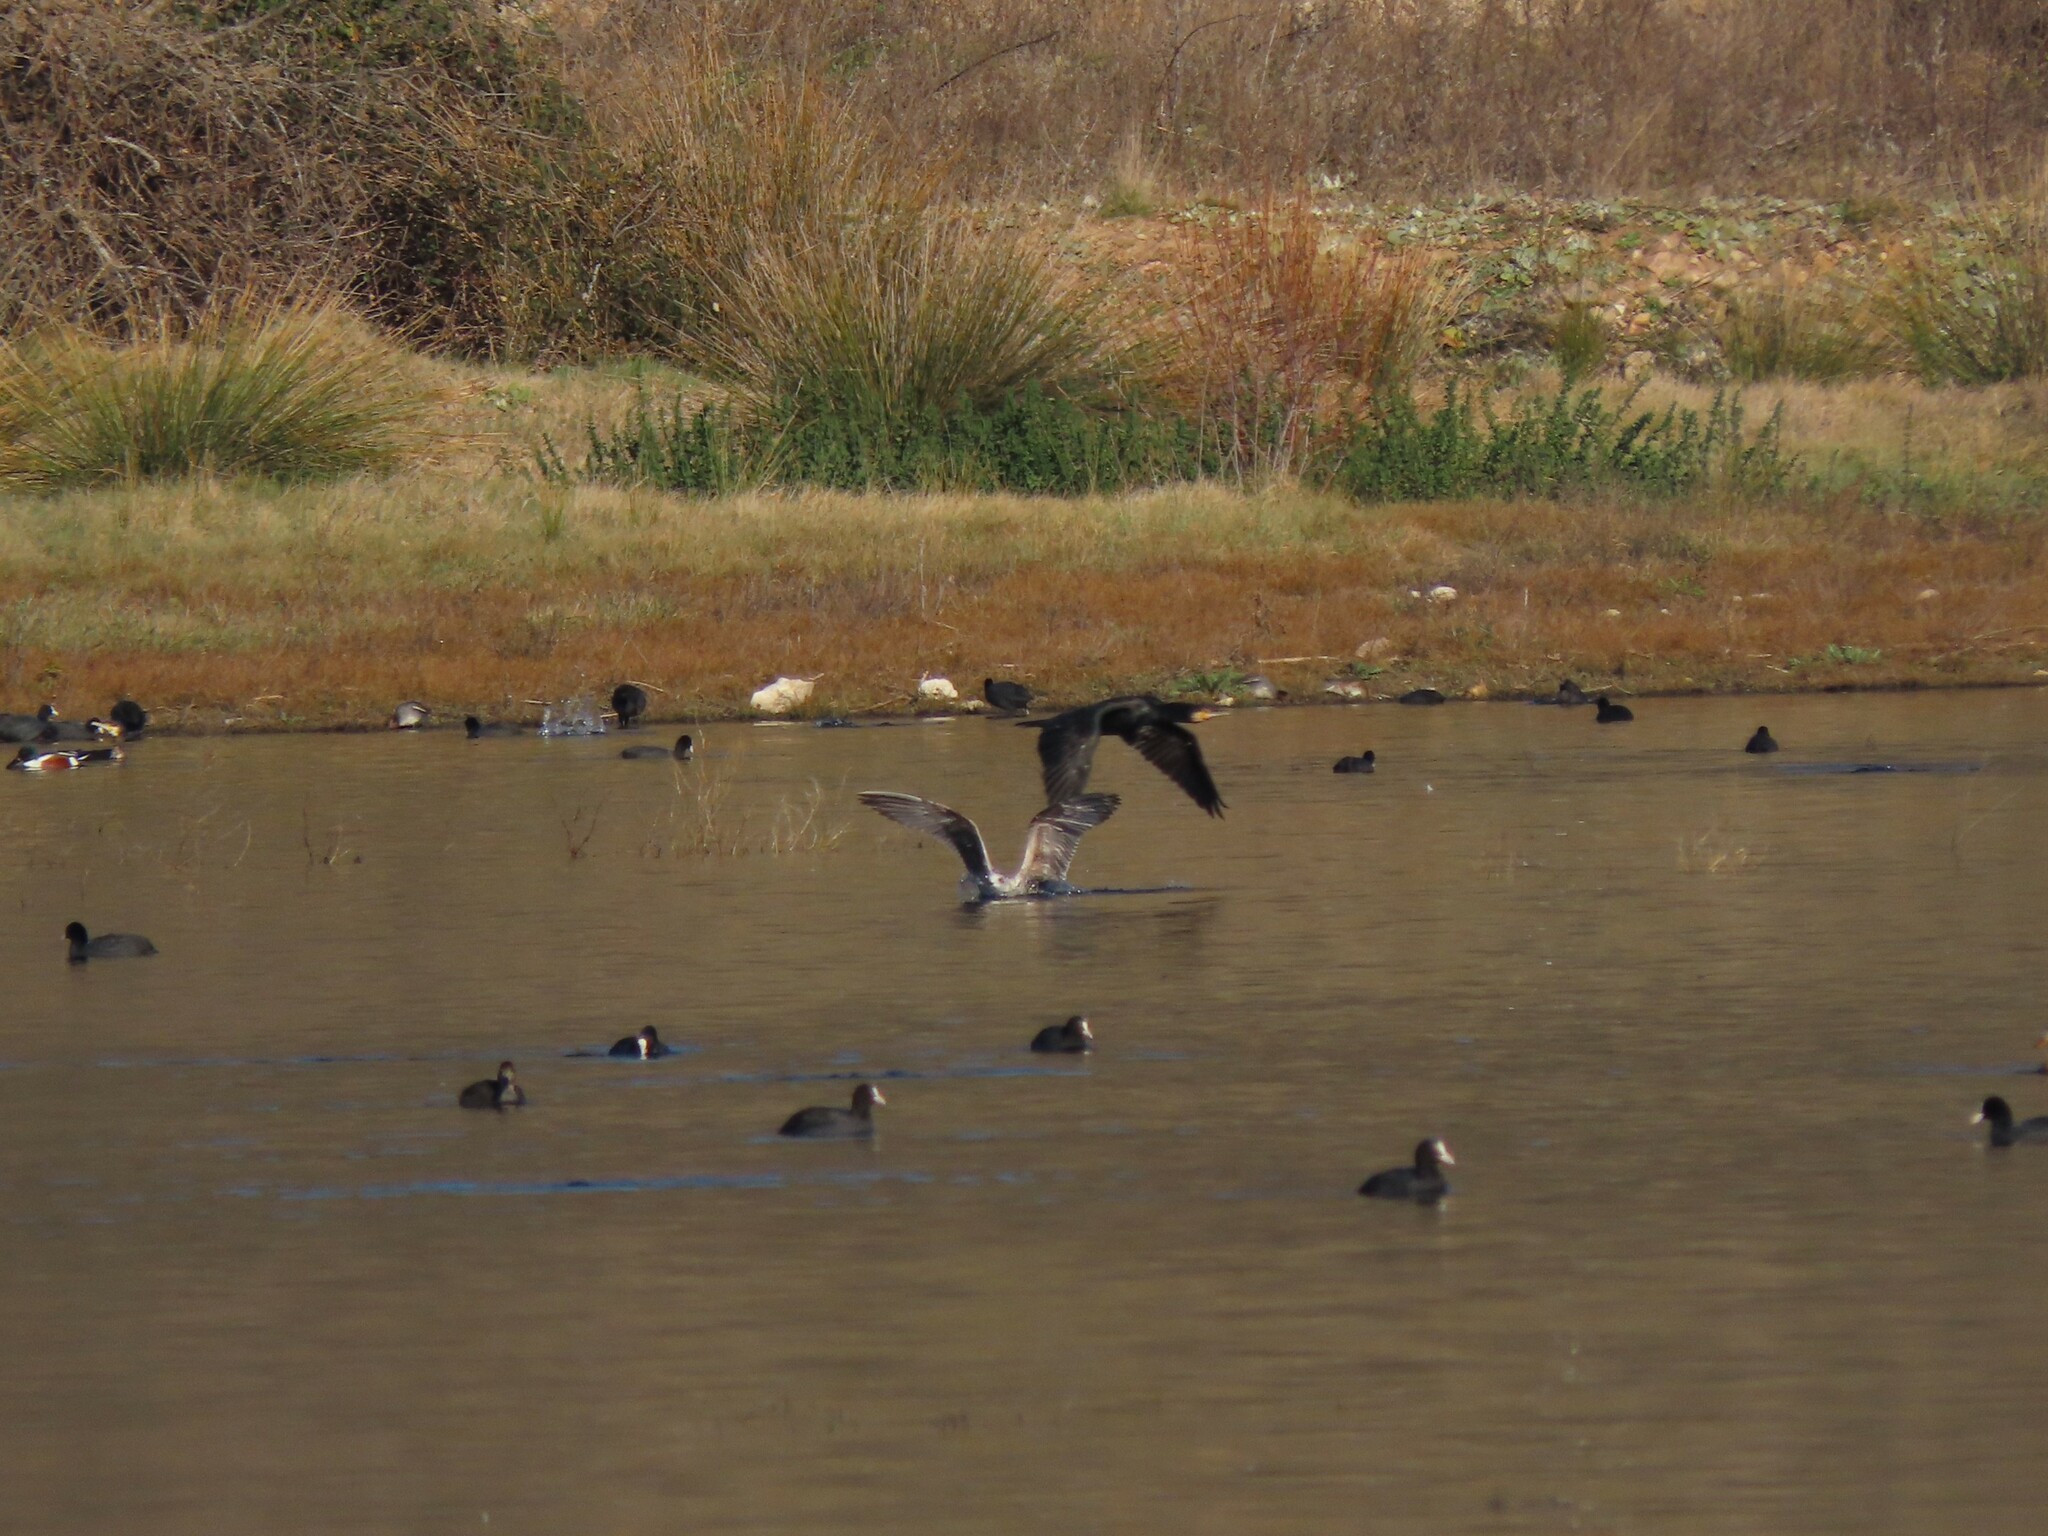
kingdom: Animalia
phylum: Chordata
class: Aves
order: Suliformes
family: Phalacrocoracidae
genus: Phalacrocorax
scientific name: Phalacrocorax carbo
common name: Great cormorant
